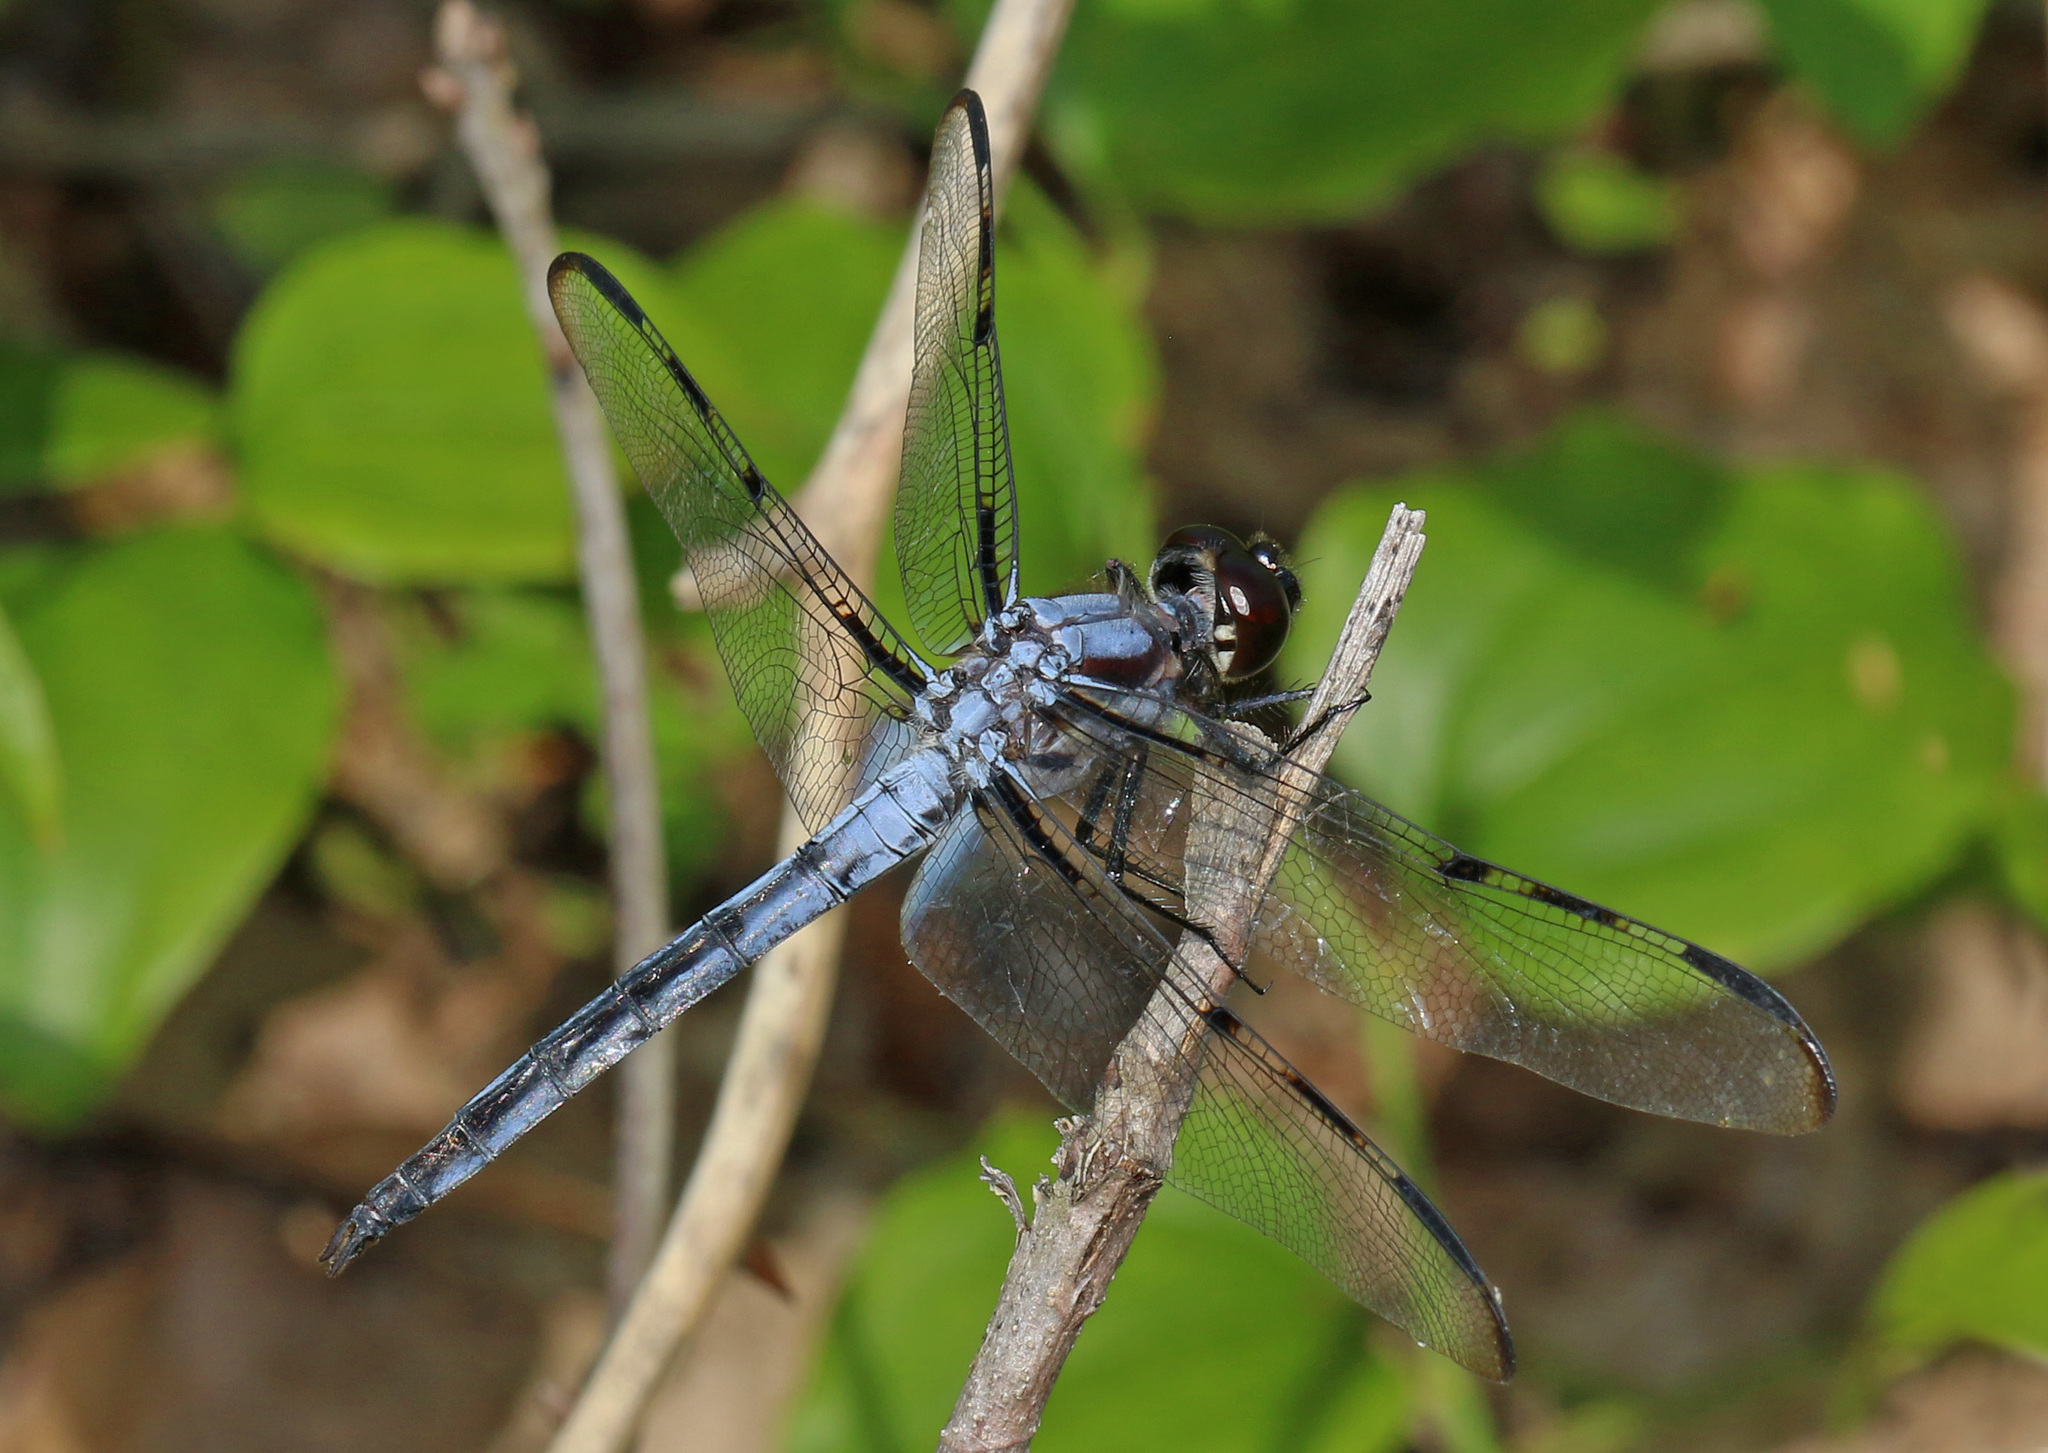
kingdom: Animalia
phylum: Arthropoda
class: Insecta
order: Odonata
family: Libellulidae
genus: Libellula
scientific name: Libellula axilena
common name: Bar-winged skimmer
